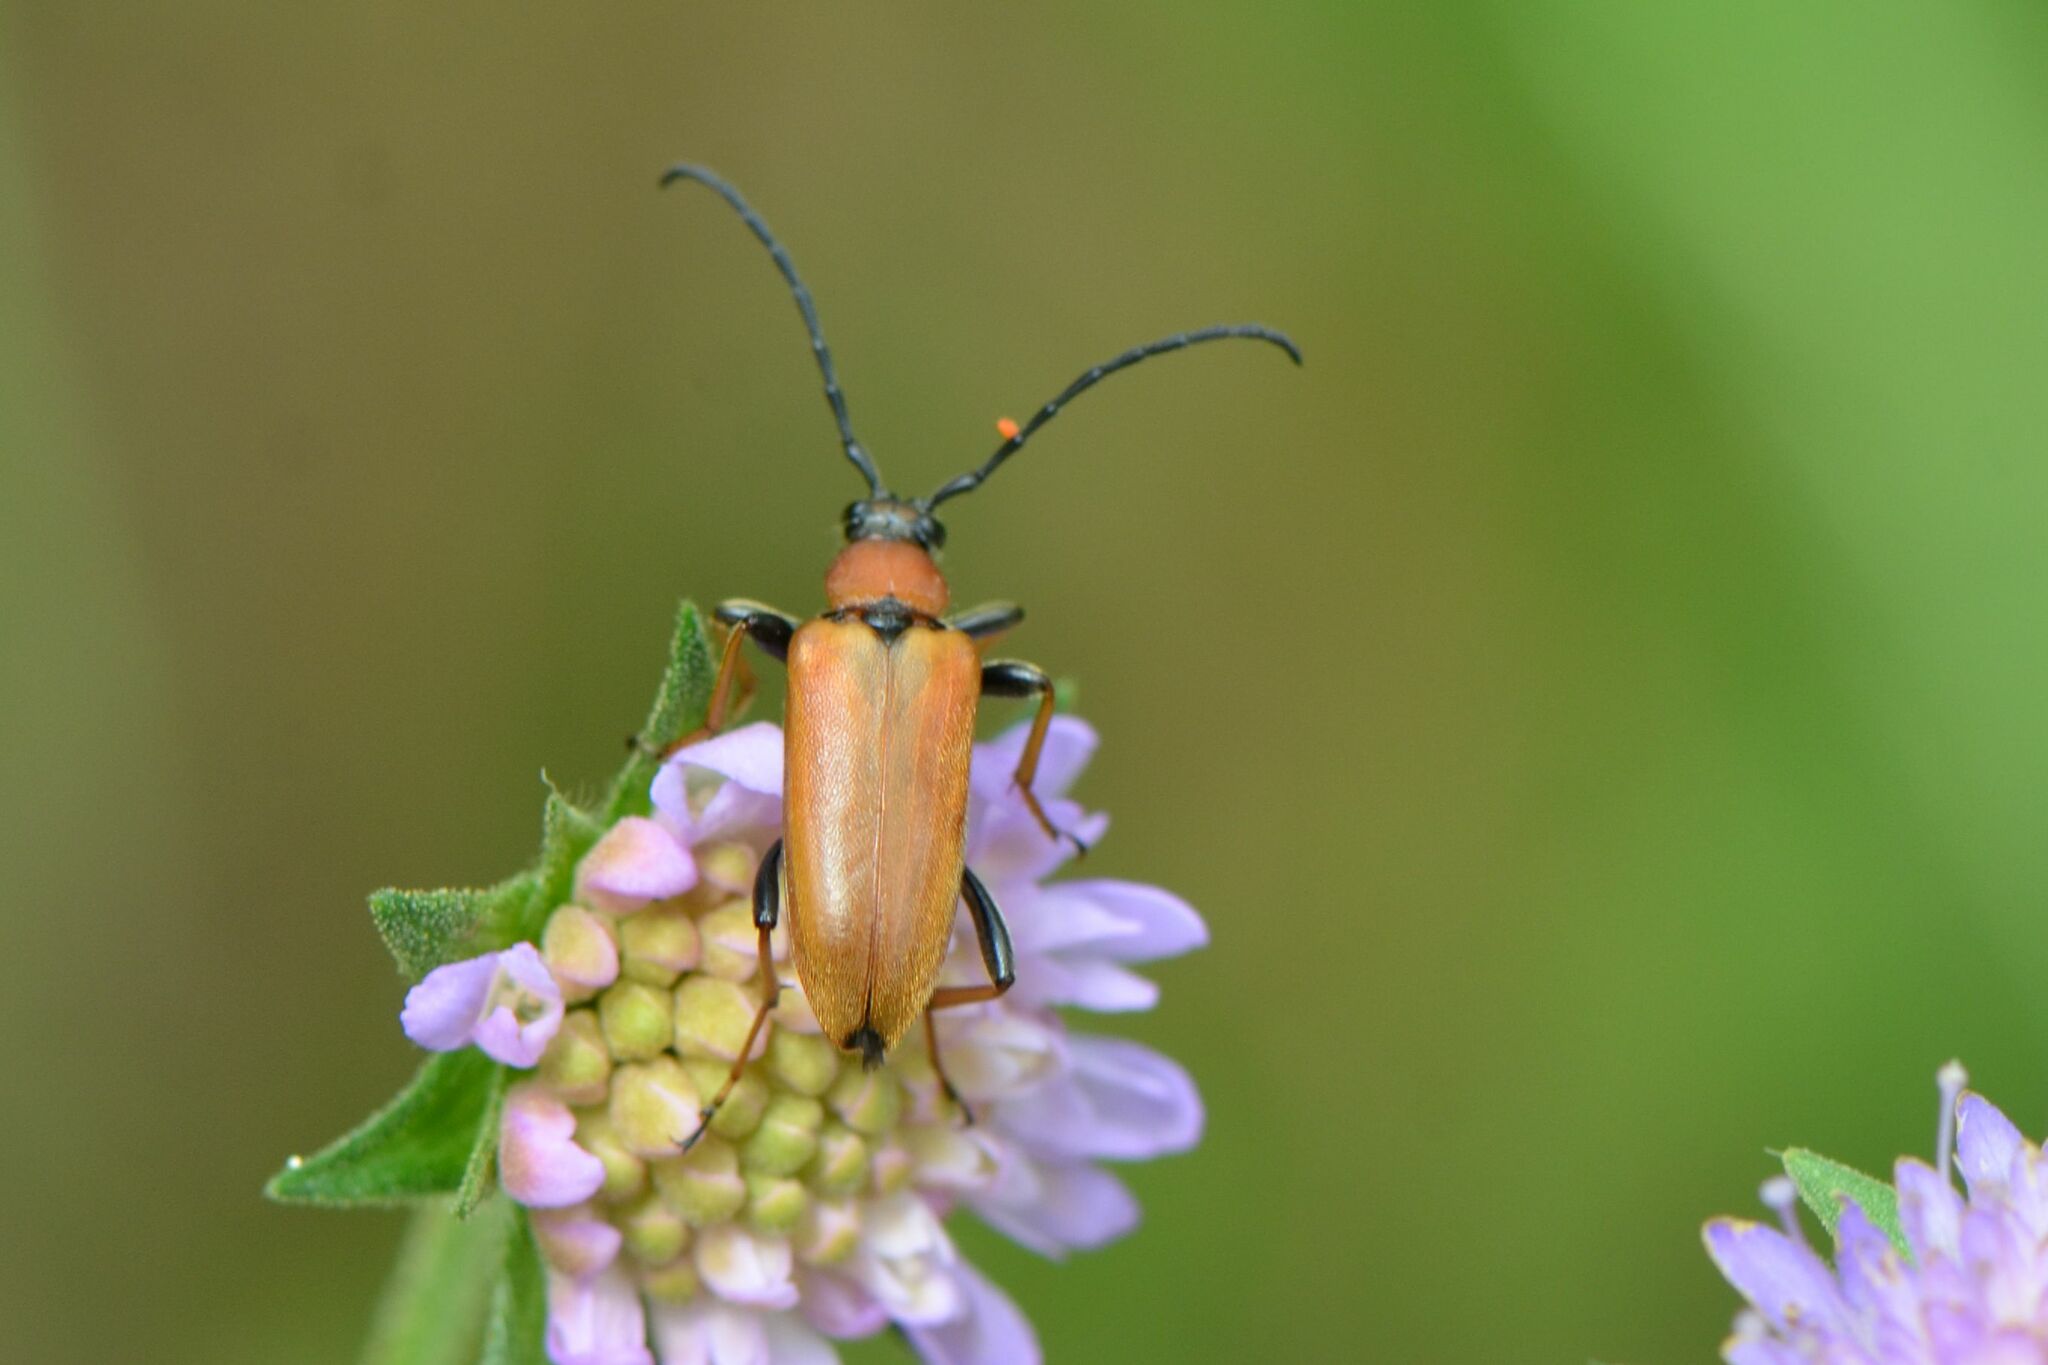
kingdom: Animalia
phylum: Arthropoda
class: Insecta
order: Coleoptera
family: Cerambycidae
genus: Stictoleptura
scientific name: Stictoleptura rubra
